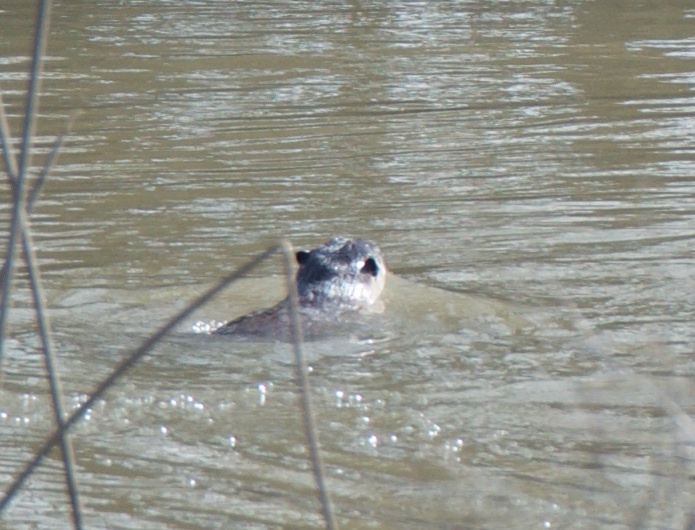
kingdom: Animalia
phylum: Chordata
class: Mammalia
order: Carnivora
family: Mustelidae
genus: Lontra
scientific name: Lontra canadensis
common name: North american river otter
